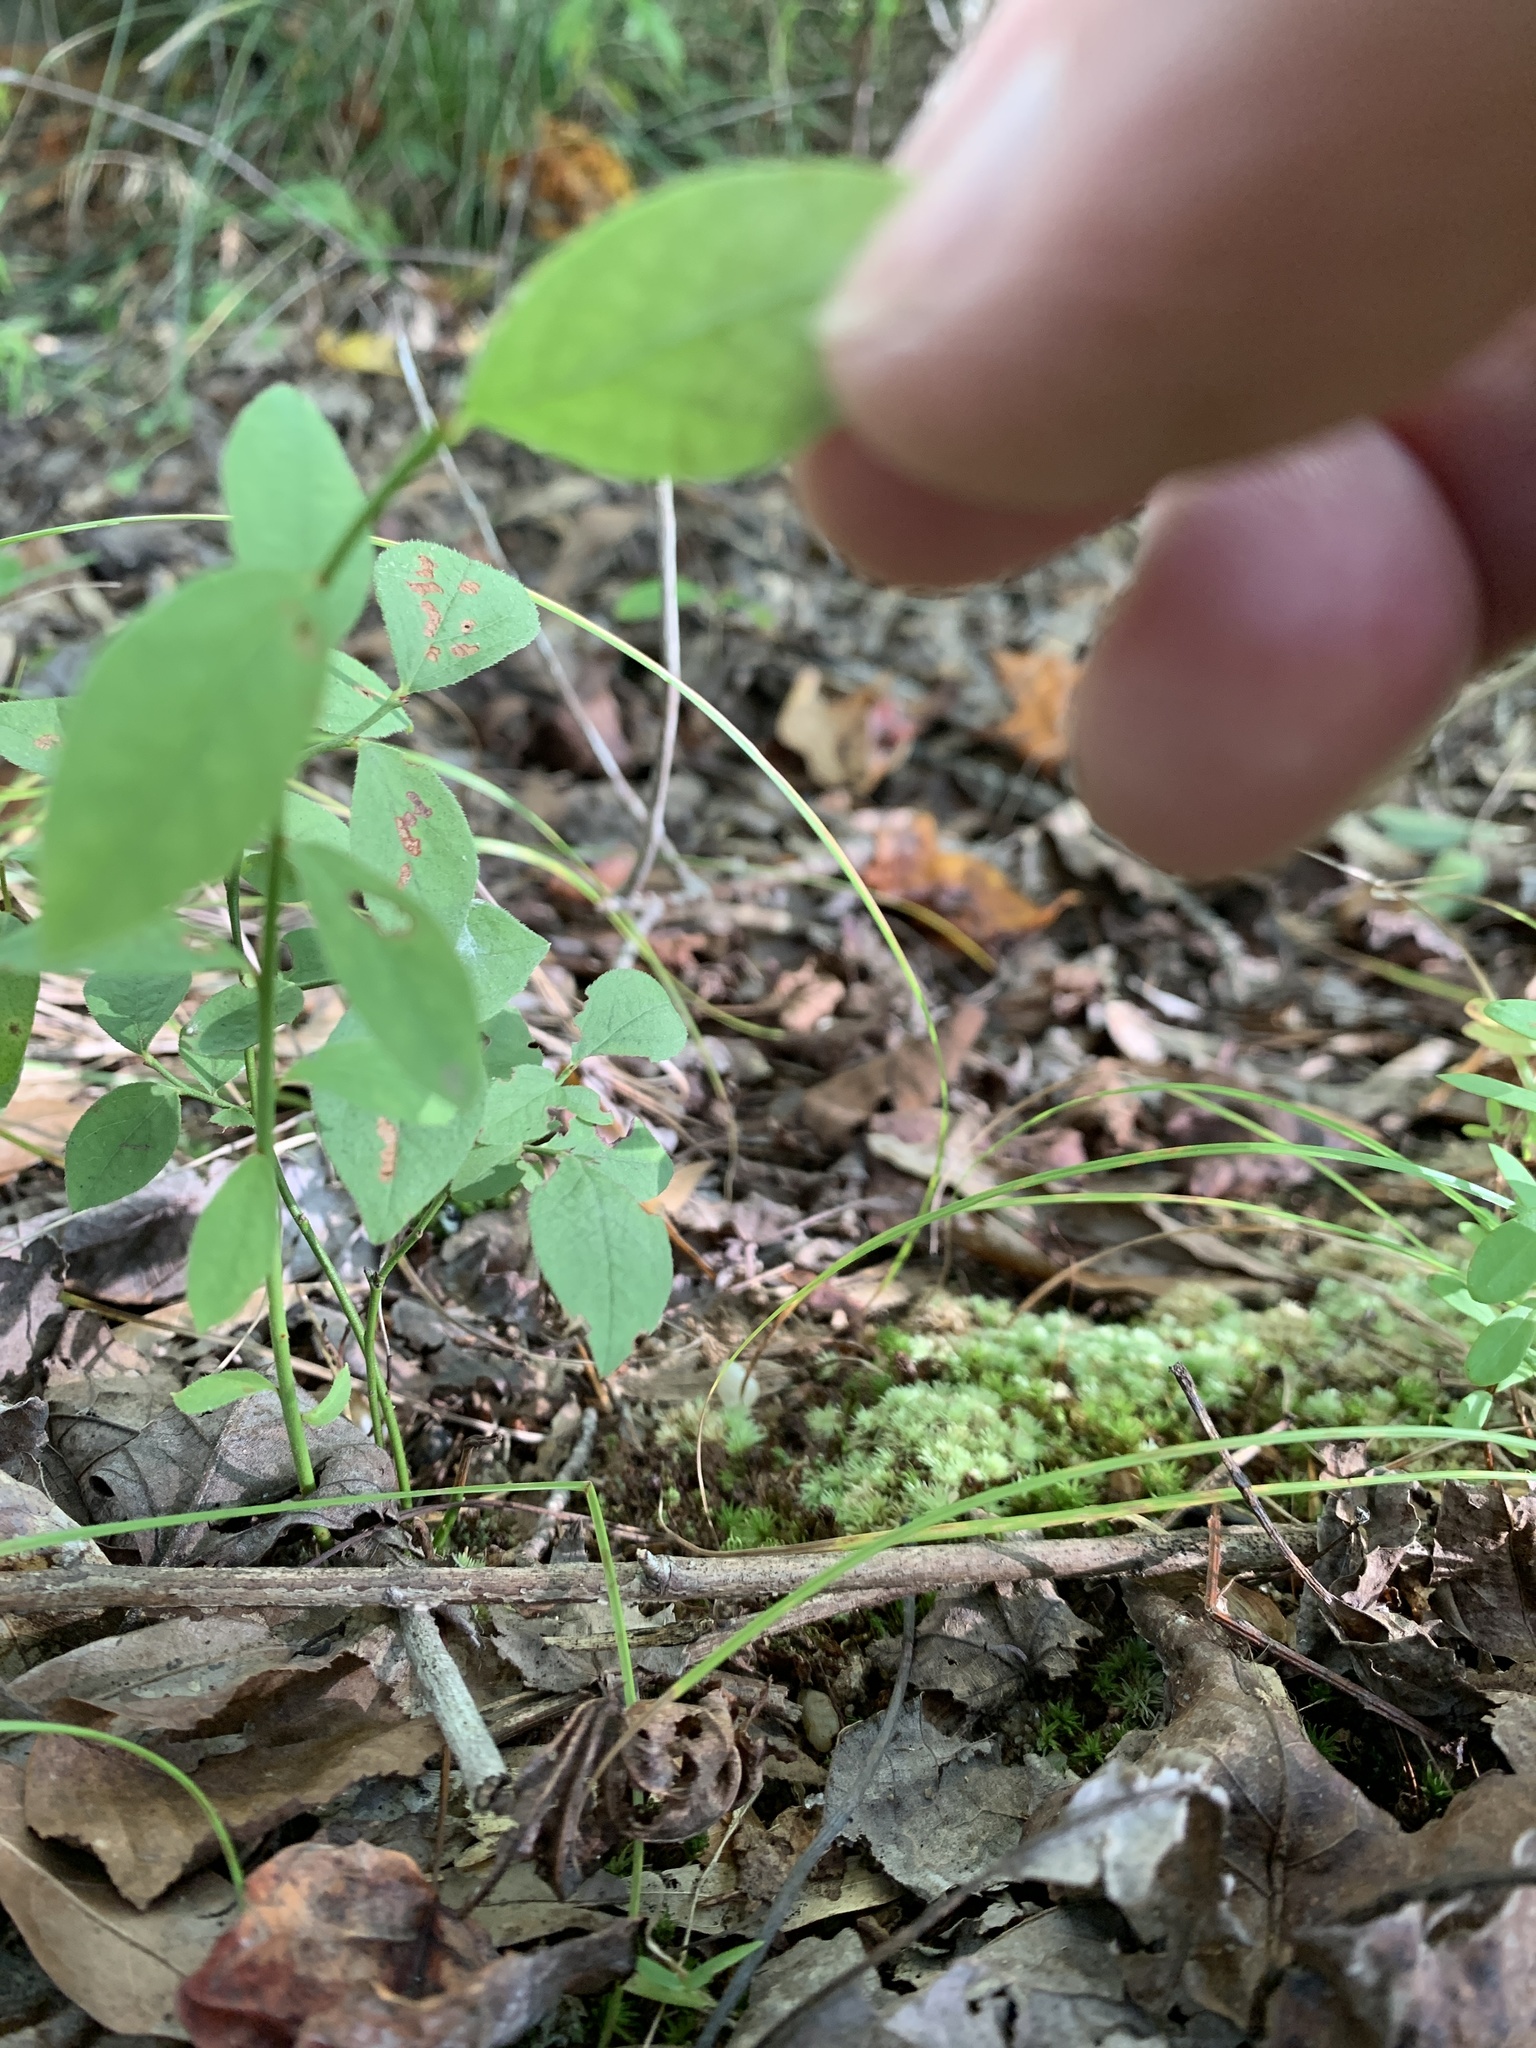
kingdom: Plantae
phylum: Tracheophyta
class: Magnoliopsida
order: Malpighiales
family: Hypericaceae
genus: Hypericum
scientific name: Hypericum hypericoides
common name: St. andrew's cross
